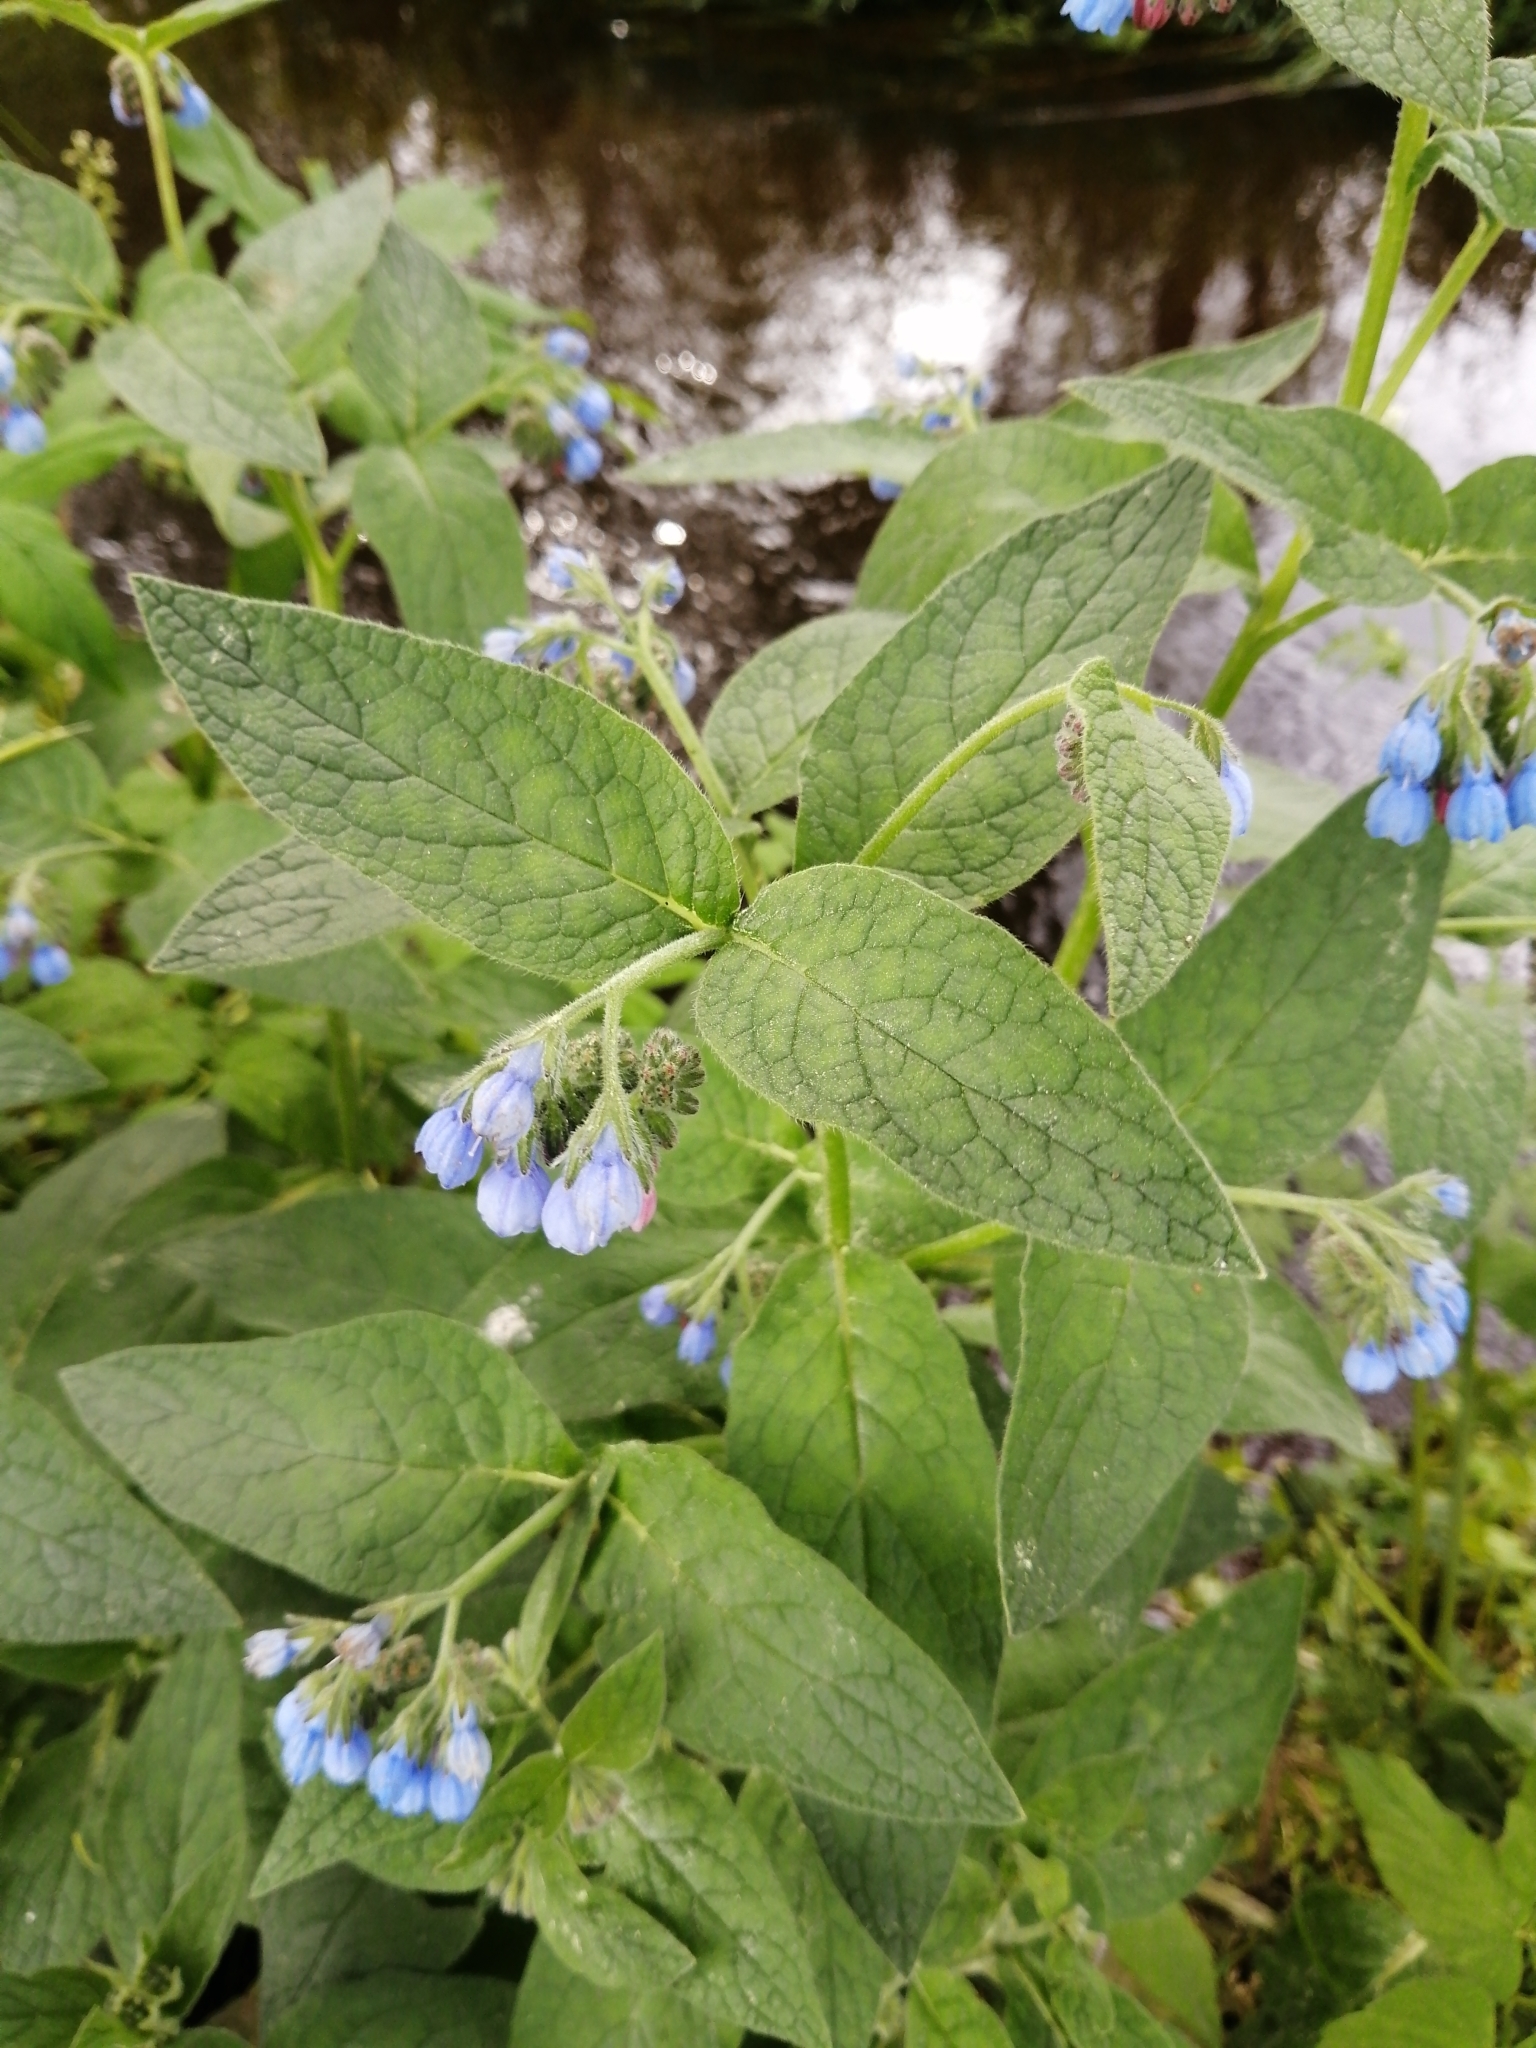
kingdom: Plantae
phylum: Tracheophyta
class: Magnoliopsida
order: Boraginales
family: Boraginaceae
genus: Symphytum
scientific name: Symphytum caucasicum
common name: Caucasian comfrey
